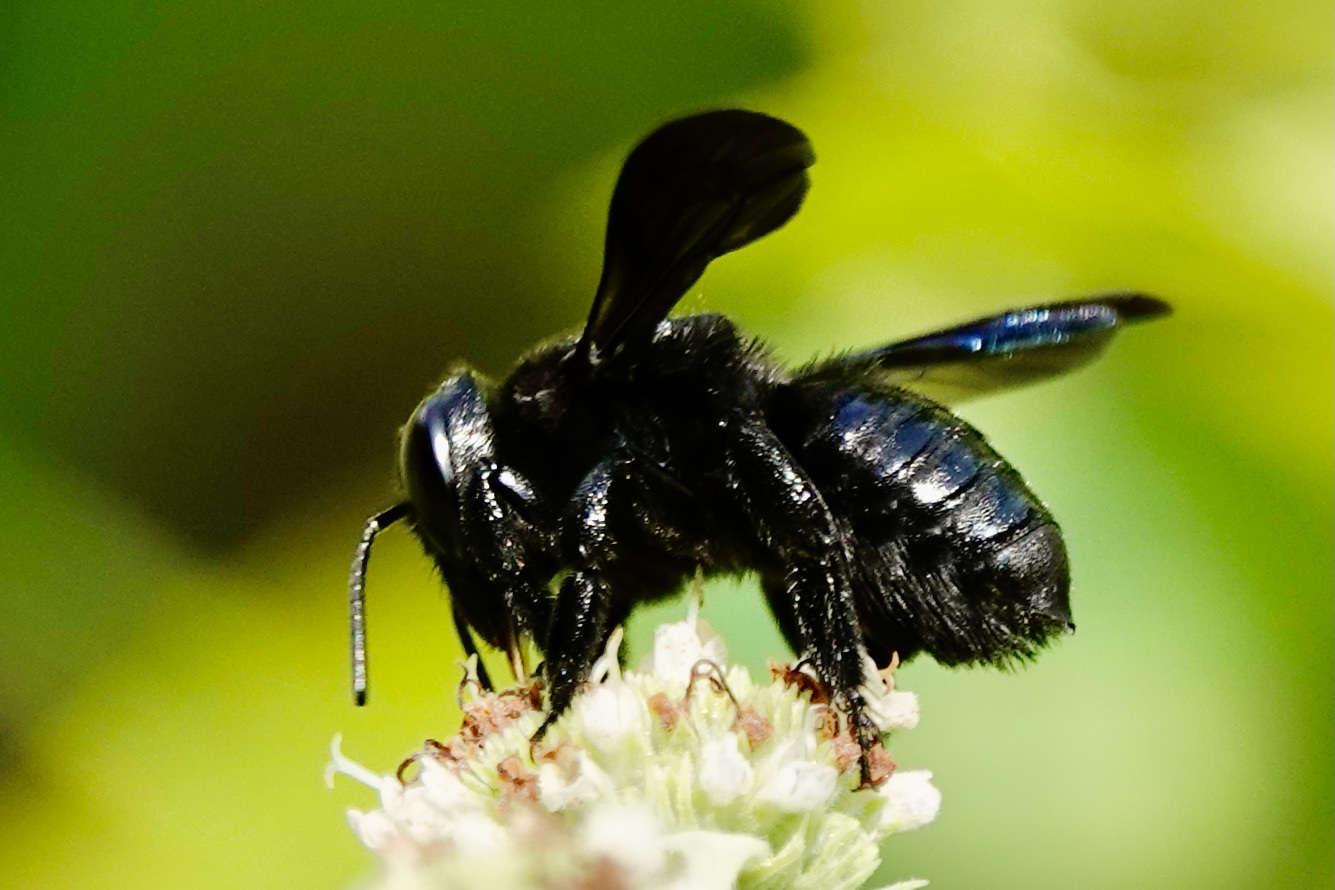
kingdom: Animalia
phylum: Arthropoda
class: Insecta
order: Hymenoptera
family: Megachilidae
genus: Megachile
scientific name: Megachile xylocopoides
